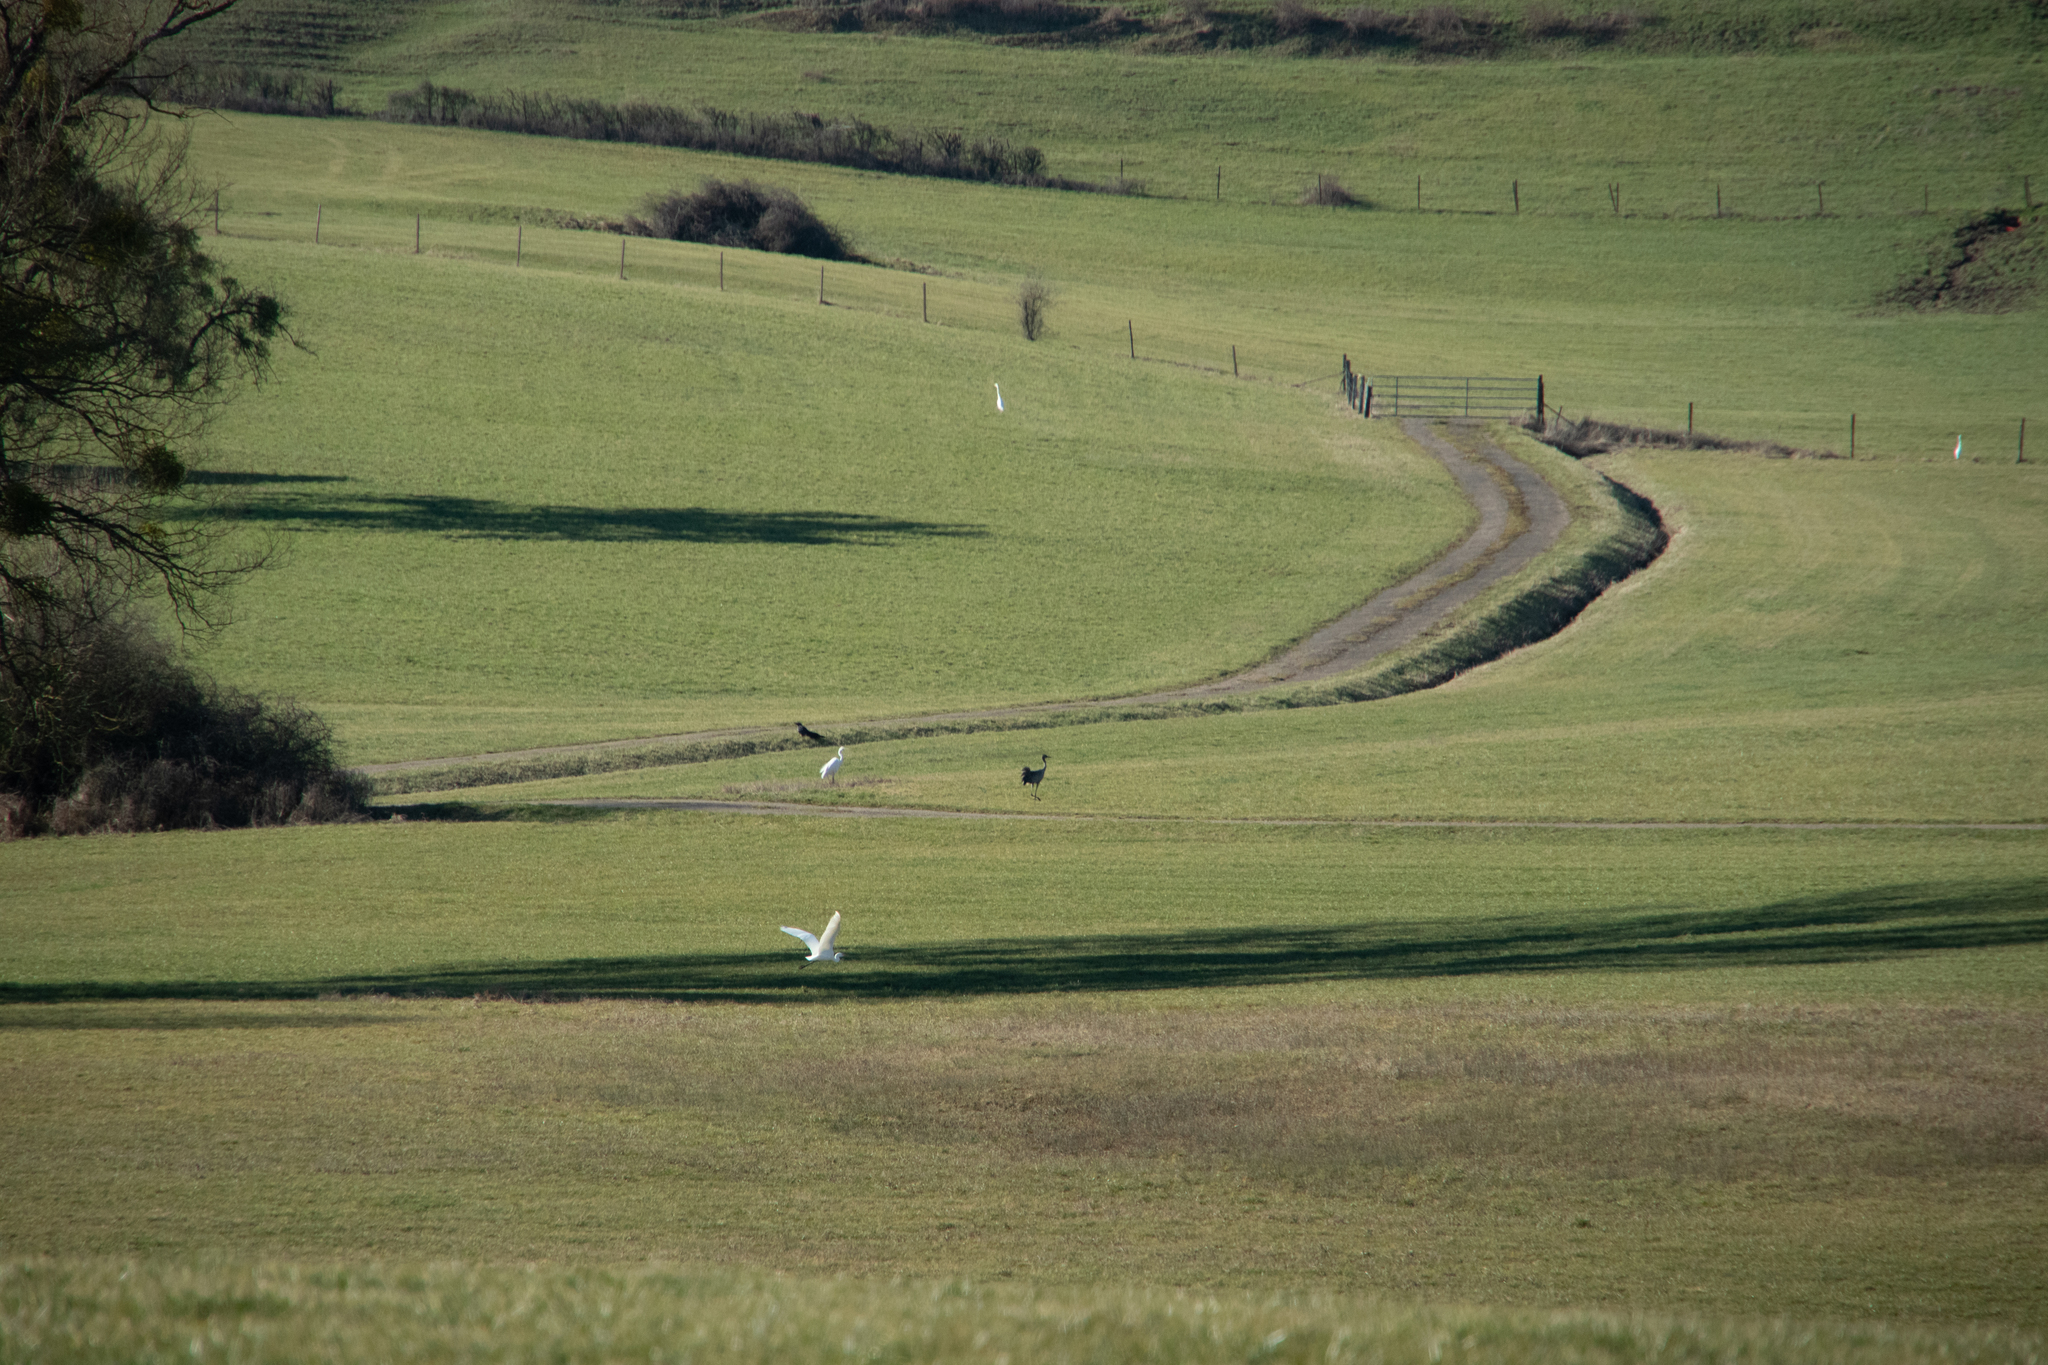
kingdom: Animalia
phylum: Chordata
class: Aves
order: Pelecaniformes
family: Ardeidae
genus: Ardea
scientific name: Ardea alba
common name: Great egret
